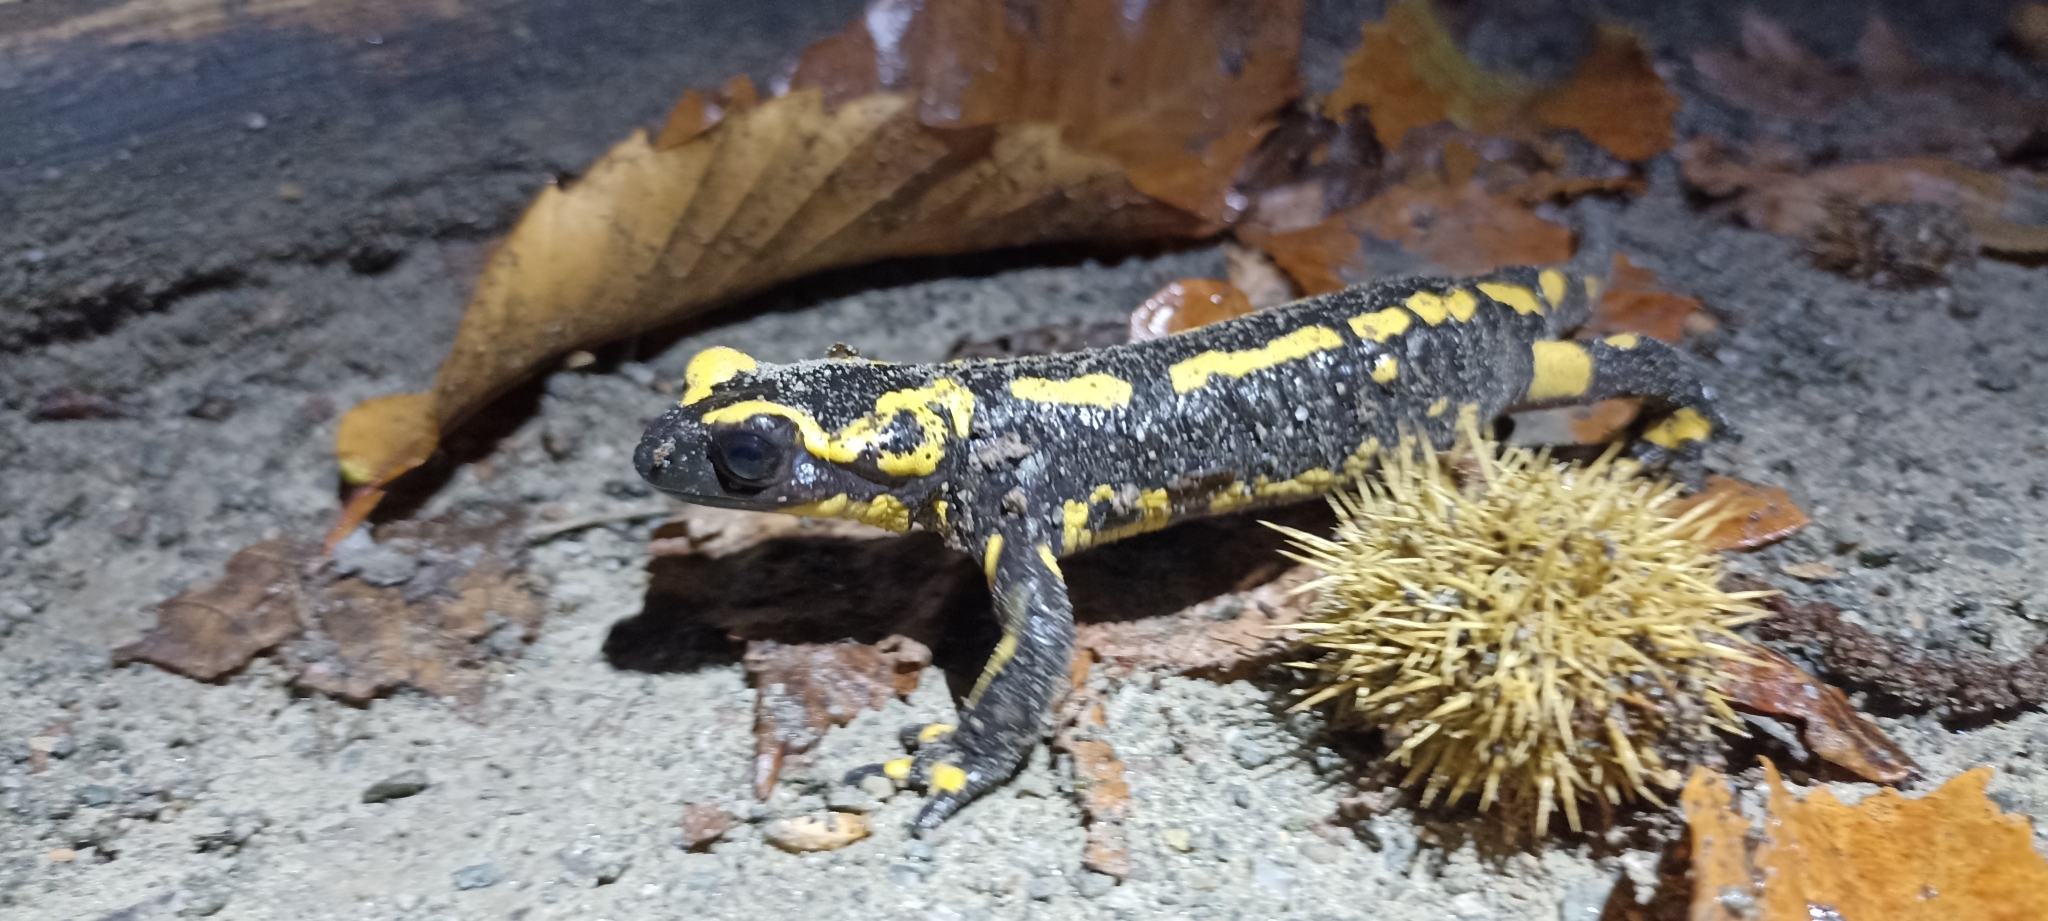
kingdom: Animalia
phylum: Chordata
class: Amphibia
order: Caudata
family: Salamandridae
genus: Salamandra
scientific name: Salamandra salamandra
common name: Fire salamander
